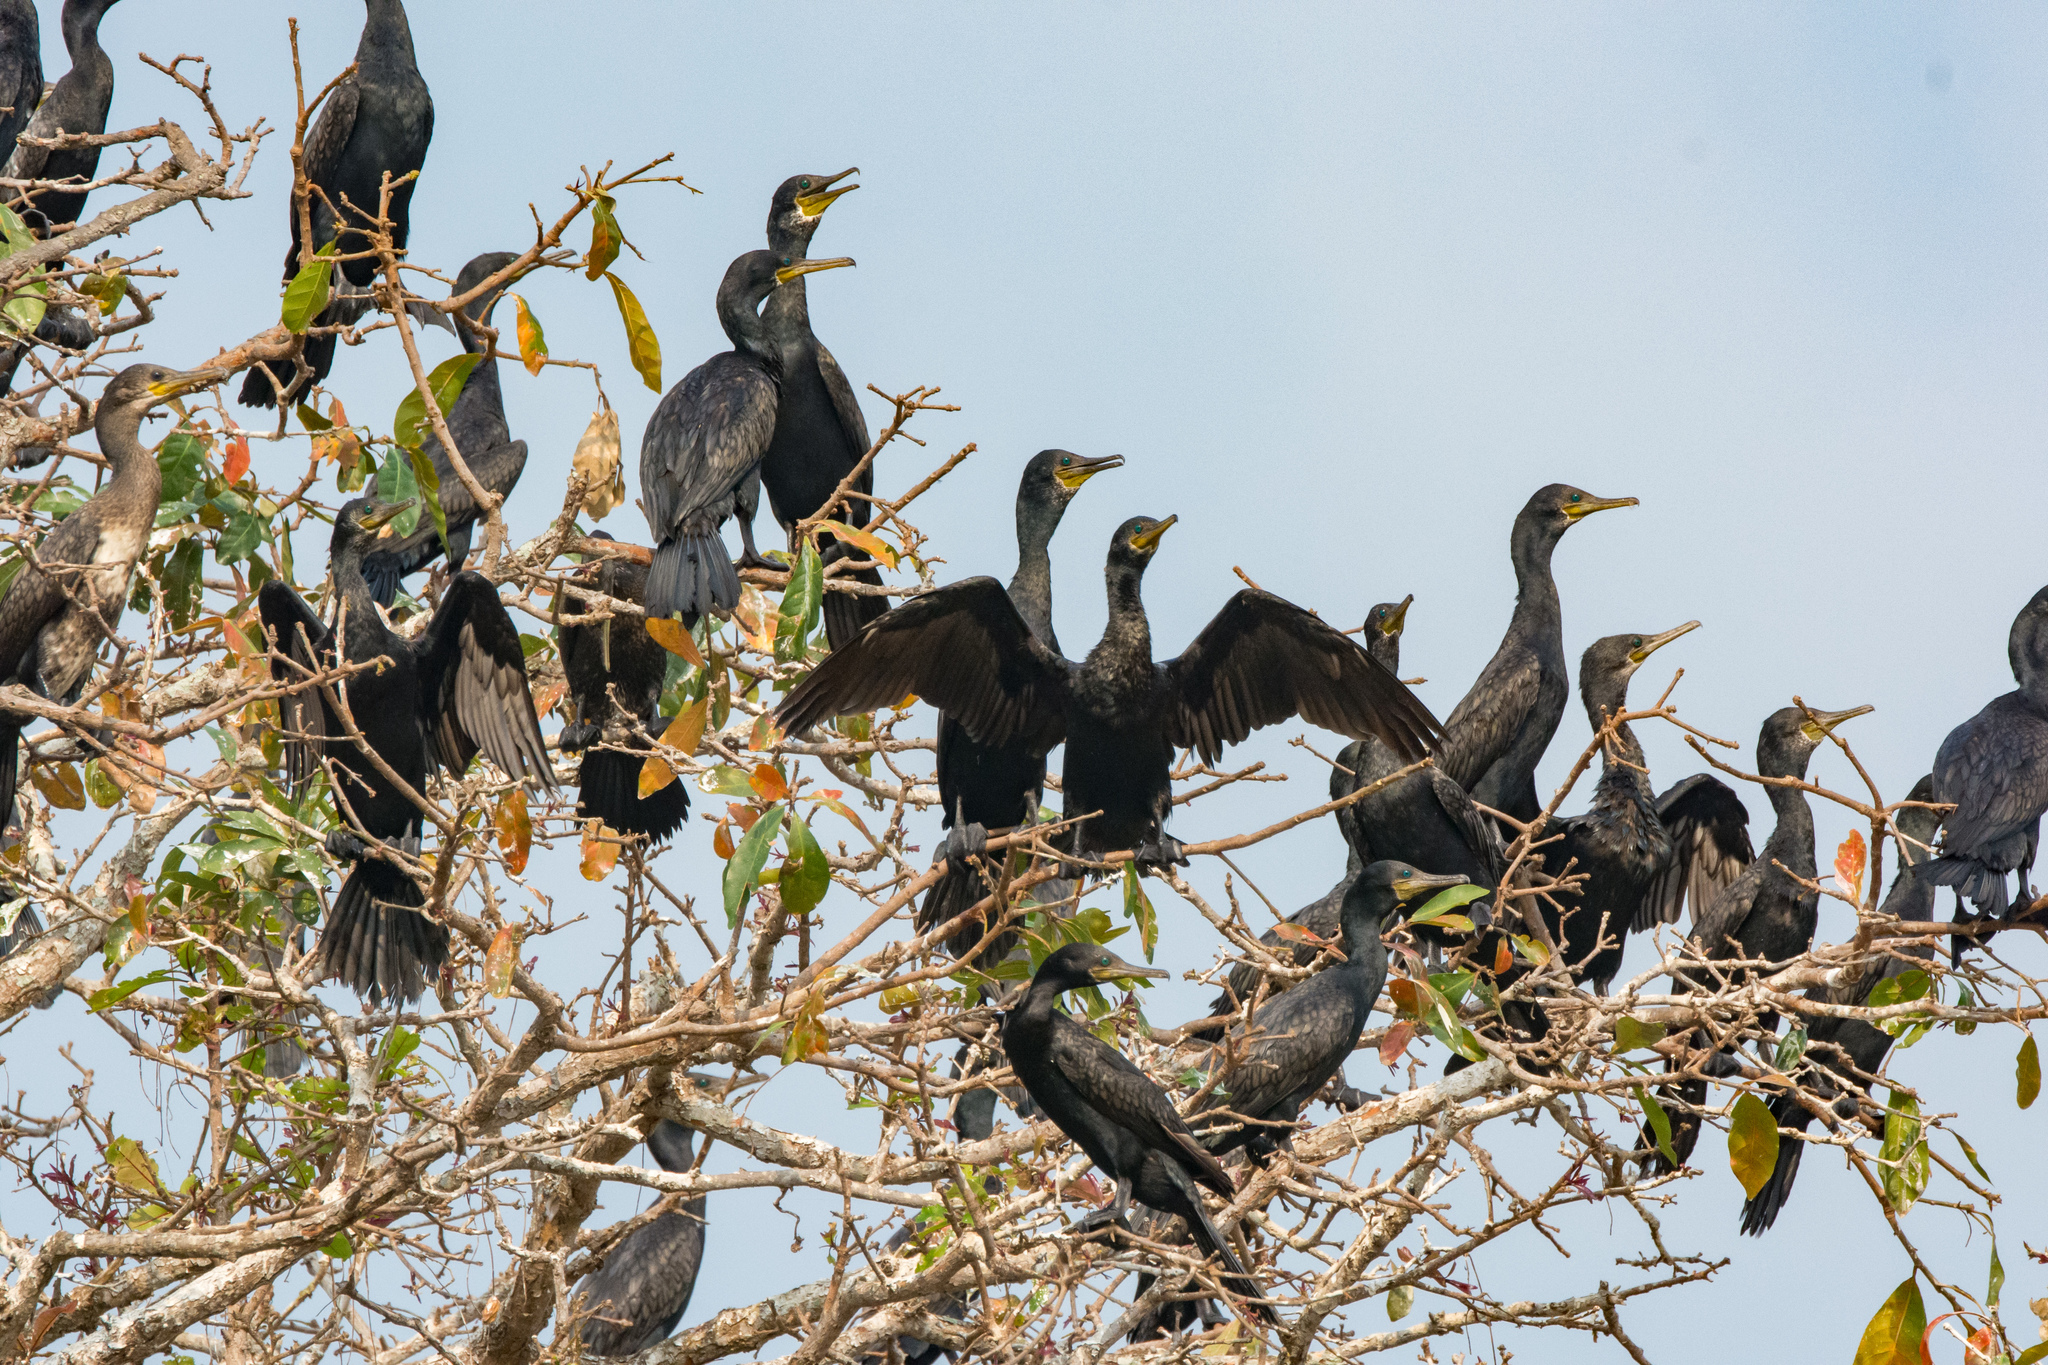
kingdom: Animalia
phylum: Chordata
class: Aves
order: Suliformes
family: Phalacrocoracidae
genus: Phalacrocorax
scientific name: Phalacrocorax fuscicollis
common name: Indian cormorant
